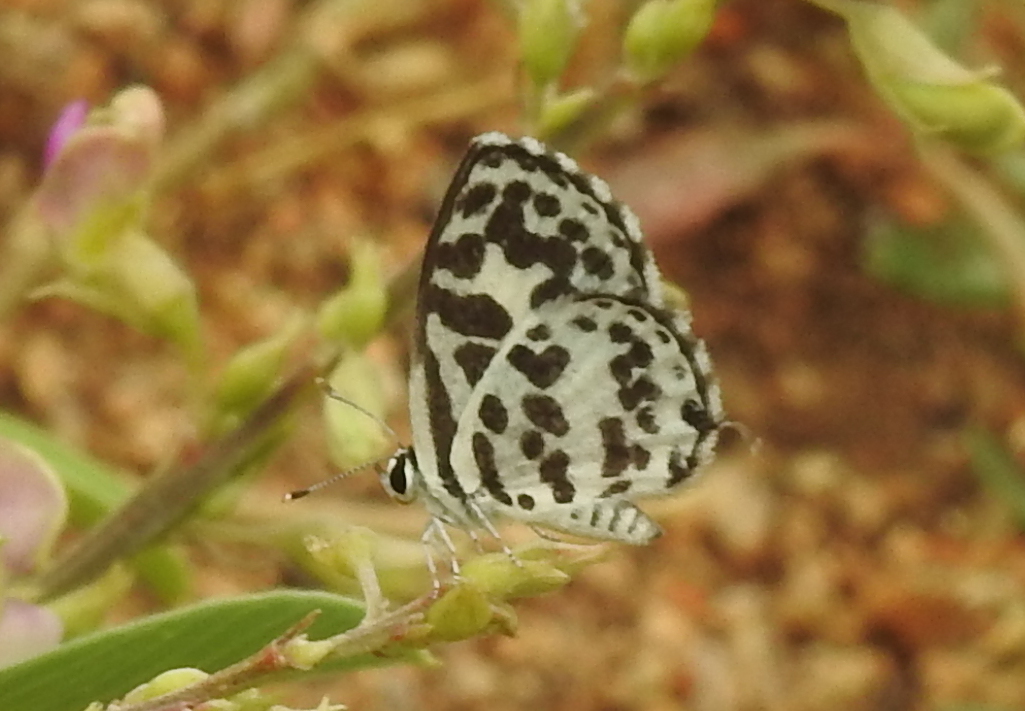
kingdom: Animalia
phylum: Arthropoda
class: Insecta
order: Lepidoptera
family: Lycaenidae
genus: Castalius
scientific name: Castalius rosimon
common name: Common pierrot
